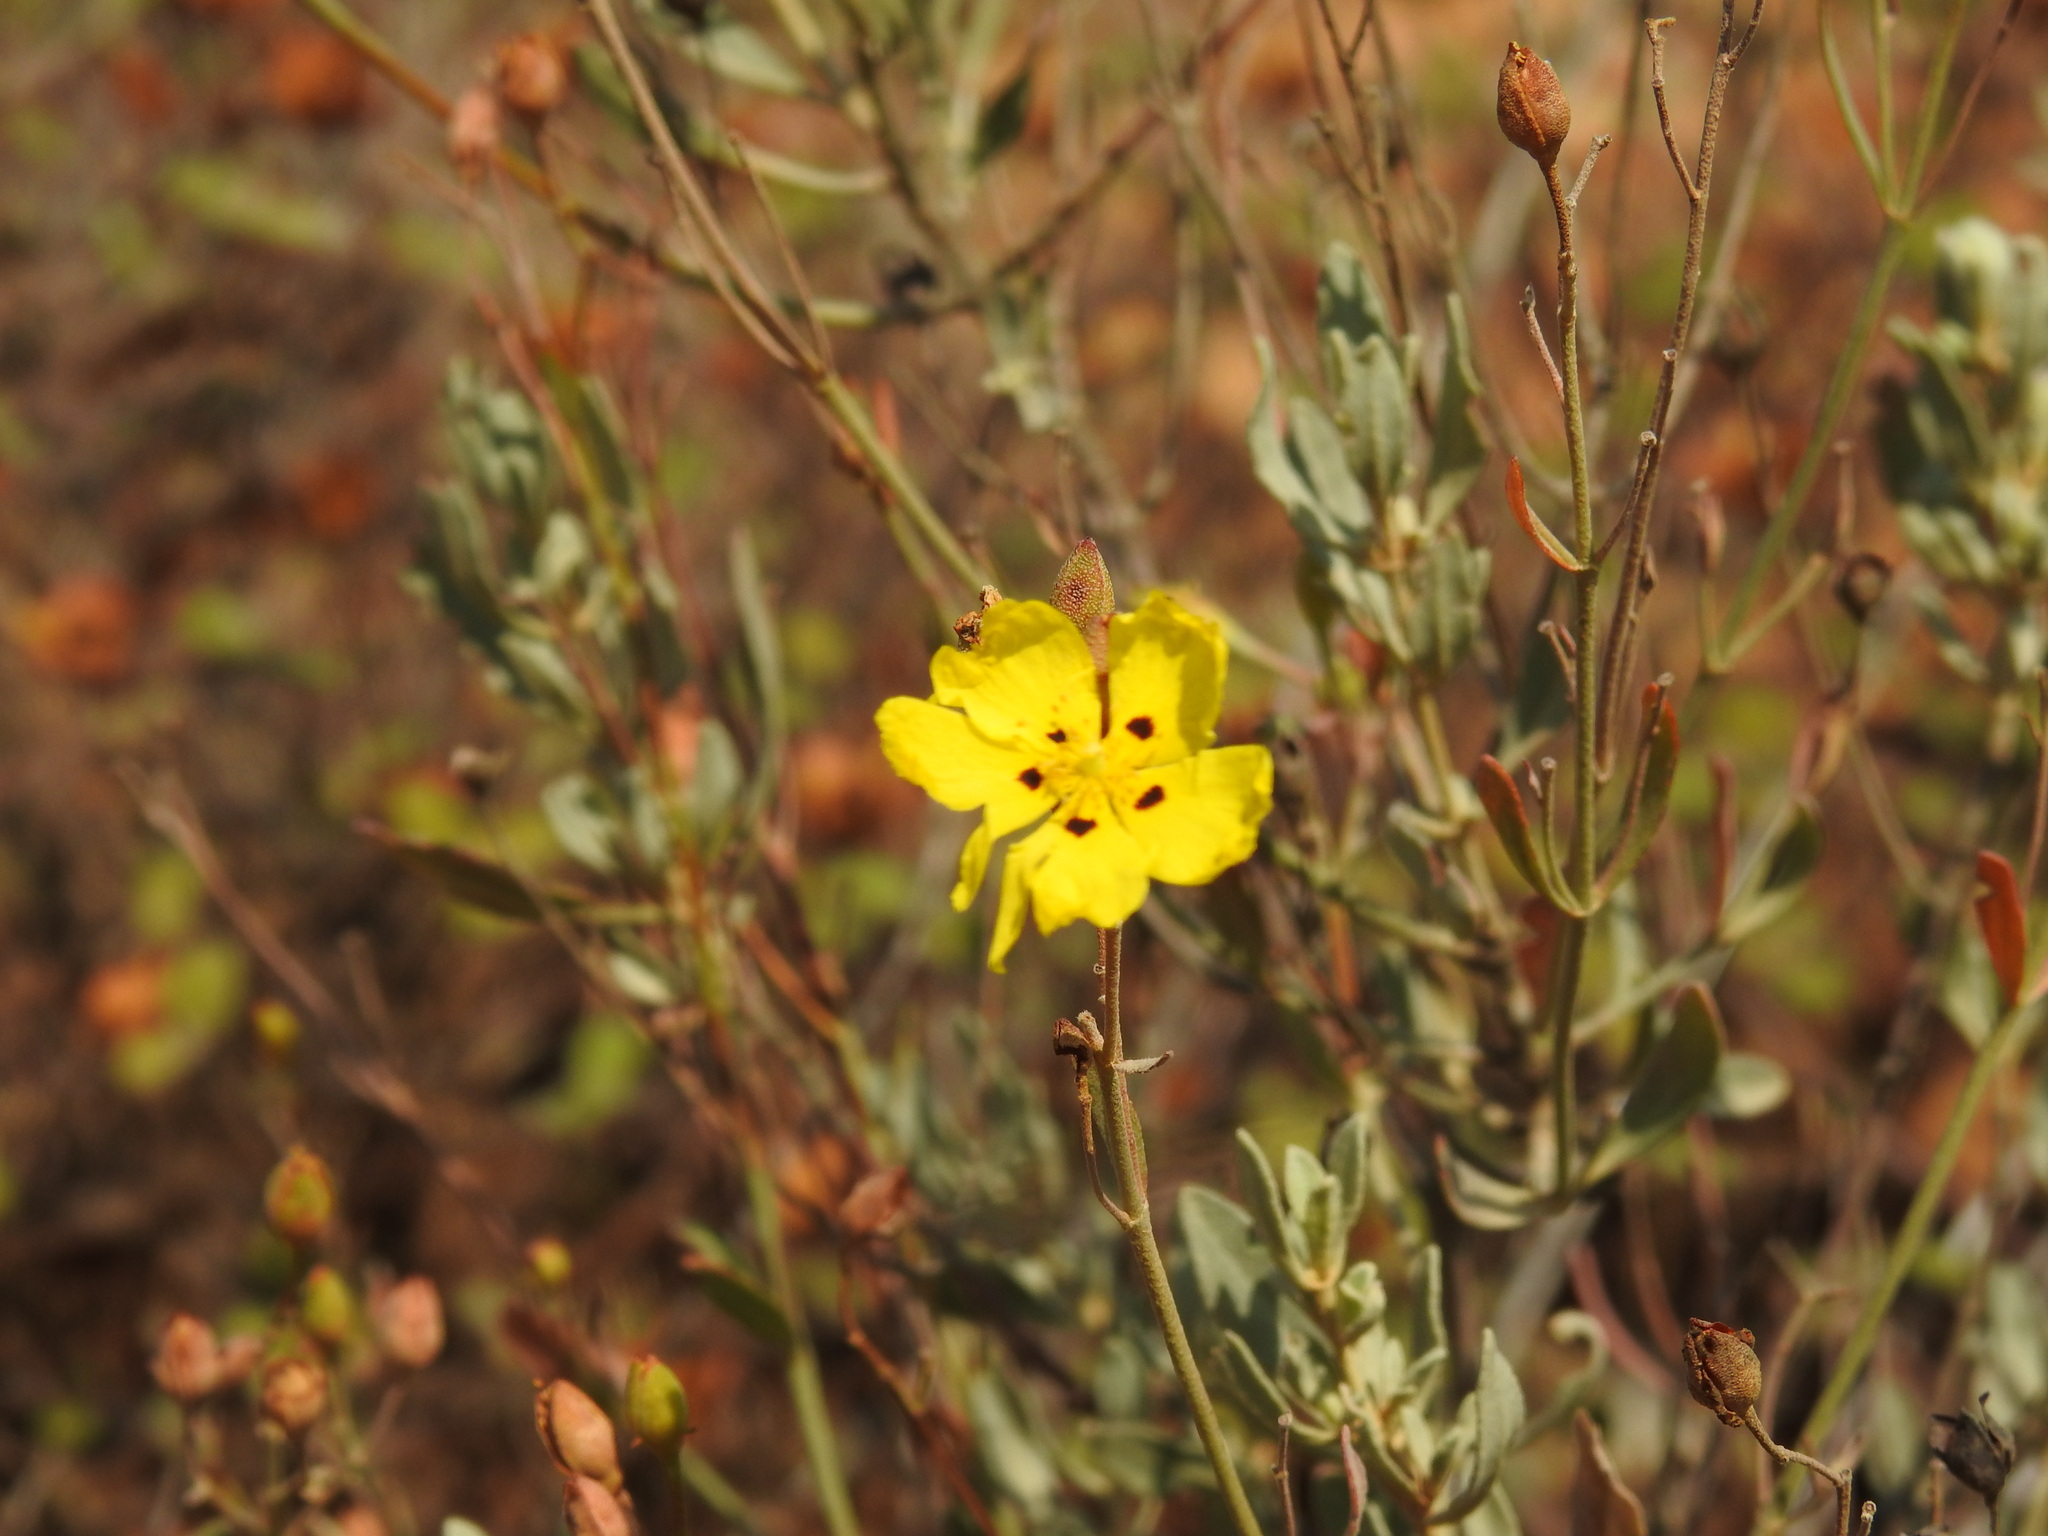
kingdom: Plantae
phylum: Tracheophyta
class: Magnoliopsida
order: Malvales
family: Cistaceae
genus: Halimium
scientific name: Halimium halimifolium
